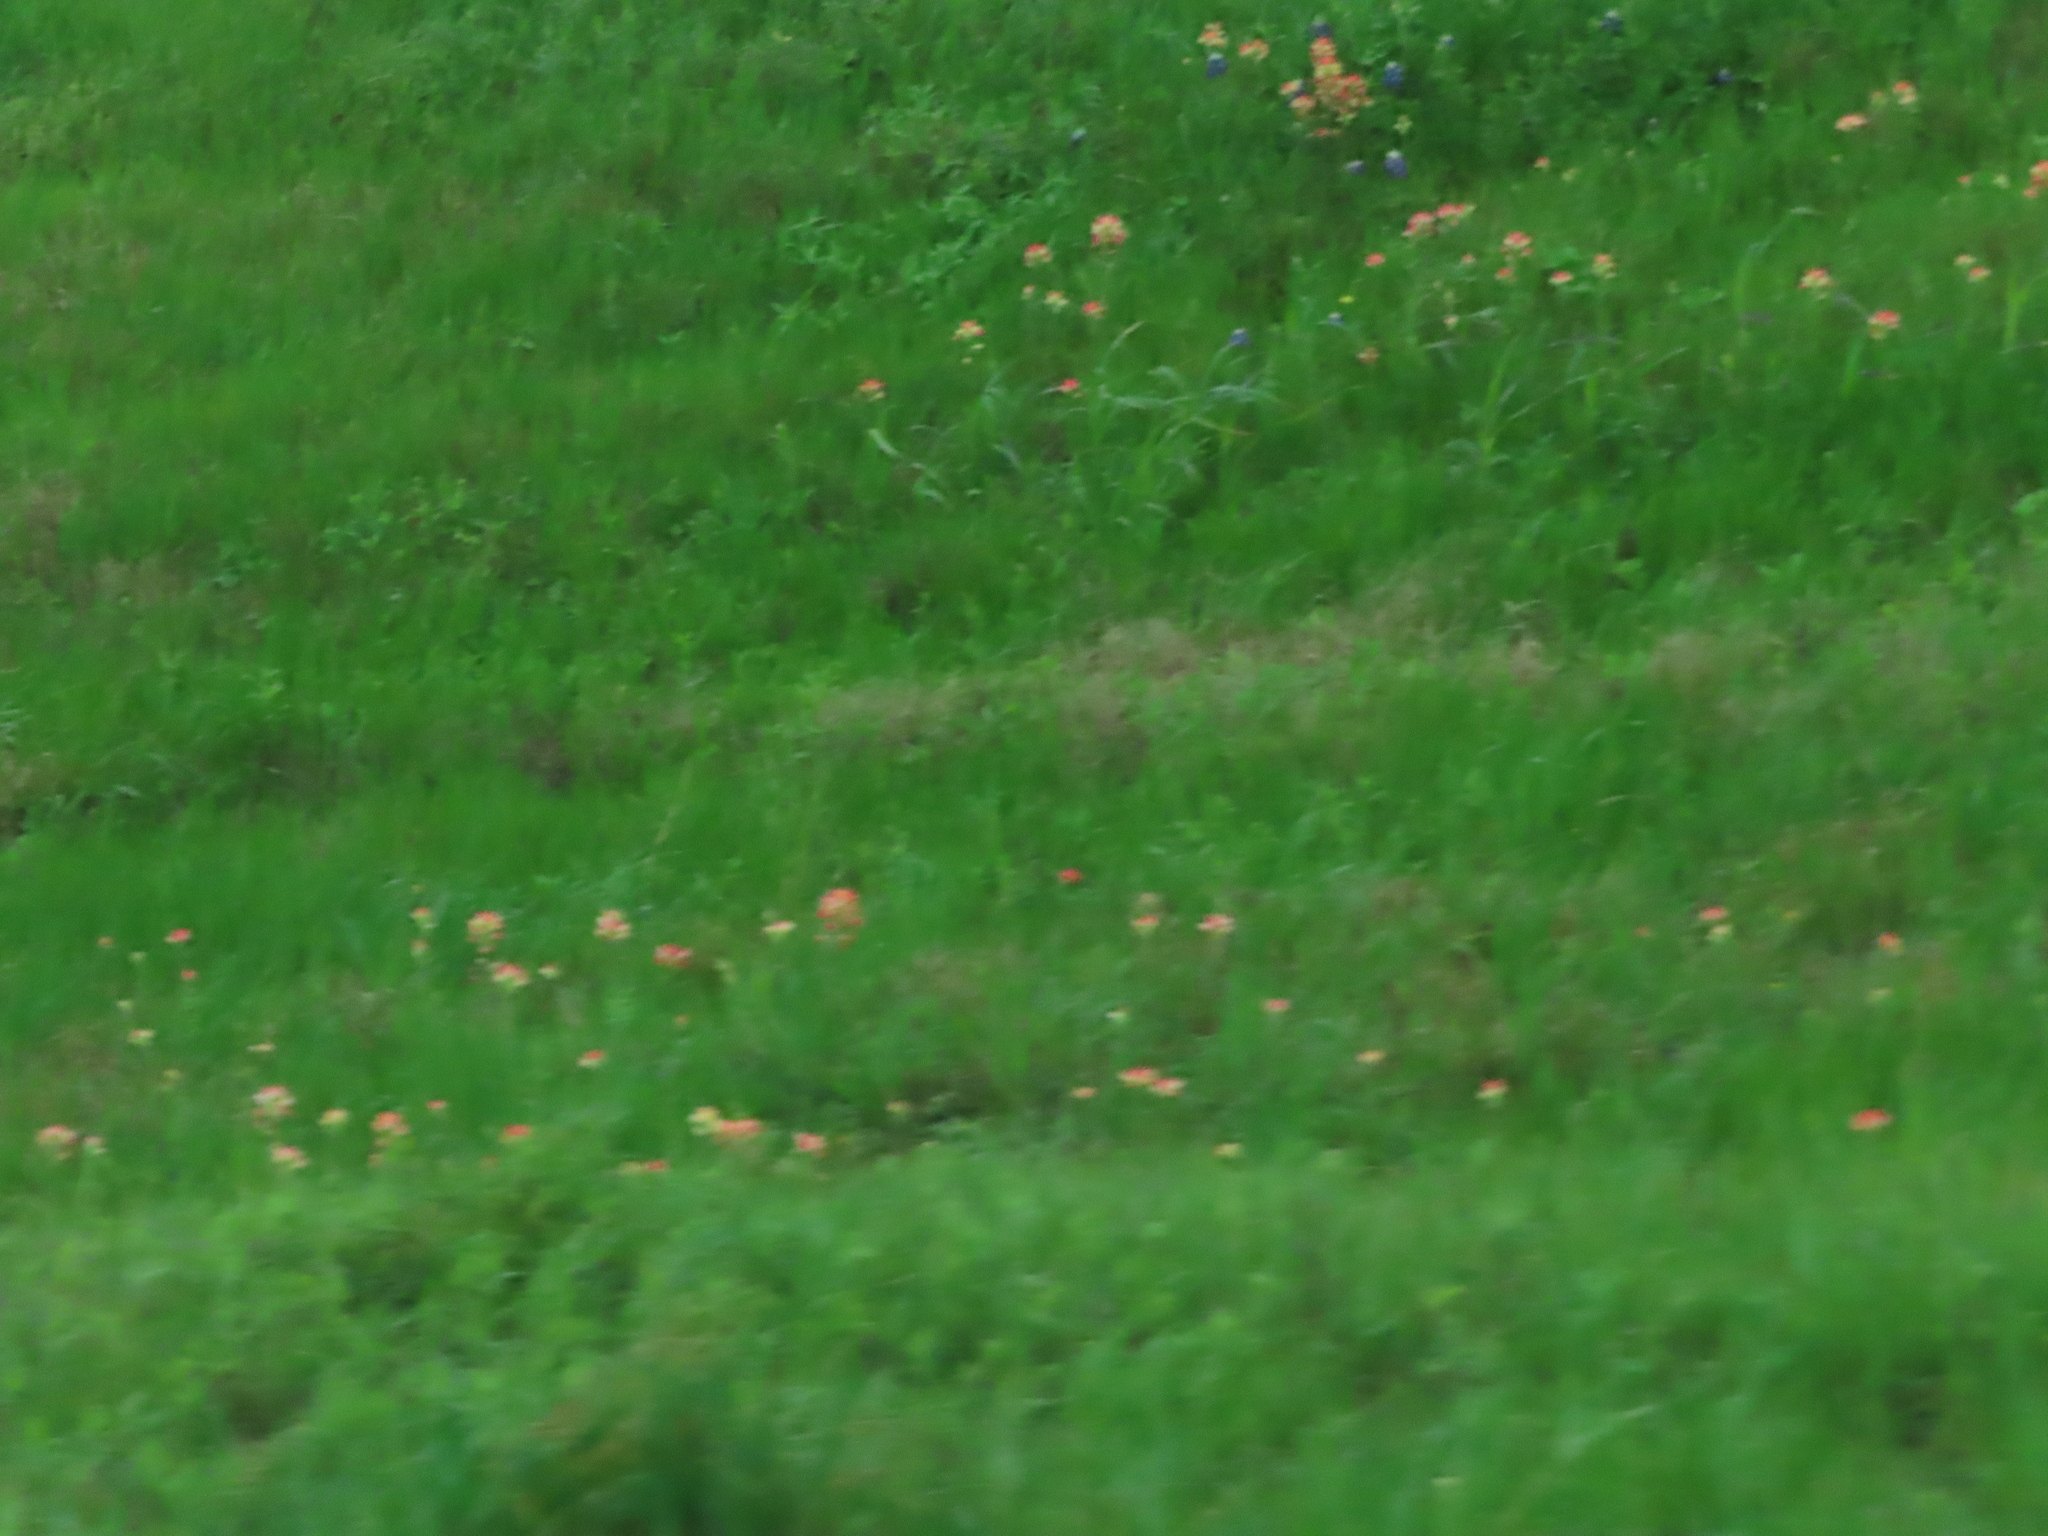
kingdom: Plantae
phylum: Tracheophyta
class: Magnoliopsida
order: Lamiales
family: Orobanchaceae
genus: Castilleja
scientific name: Castilleja indivisa
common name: Texas paintbrush
